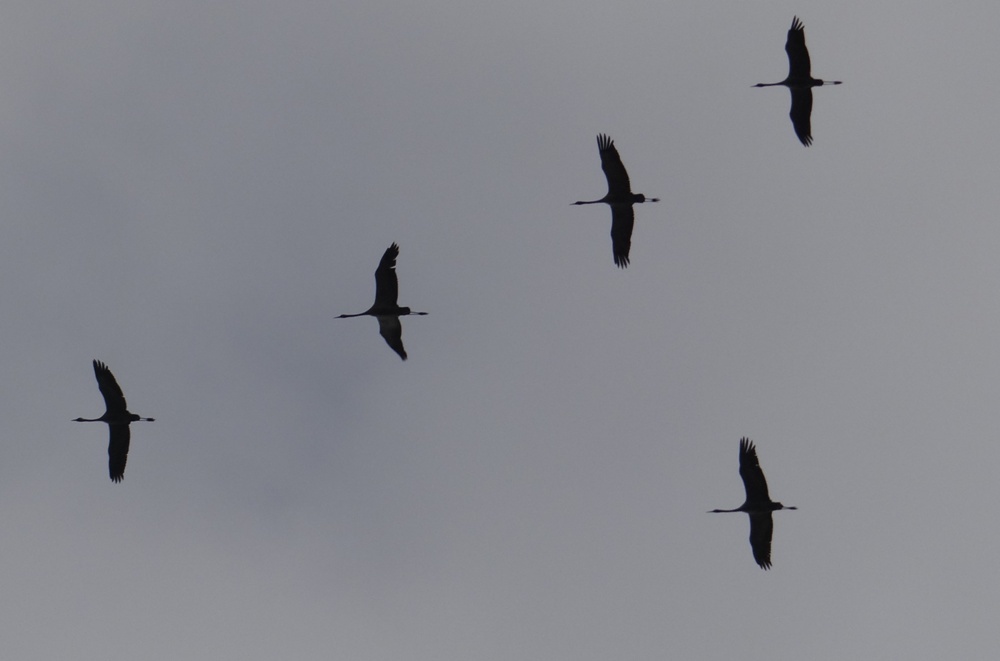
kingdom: Animalia
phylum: Chordata
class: Aves
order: Gruiformes
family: Gruidae
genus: Grus
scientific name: Grus grus
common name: Common crane
